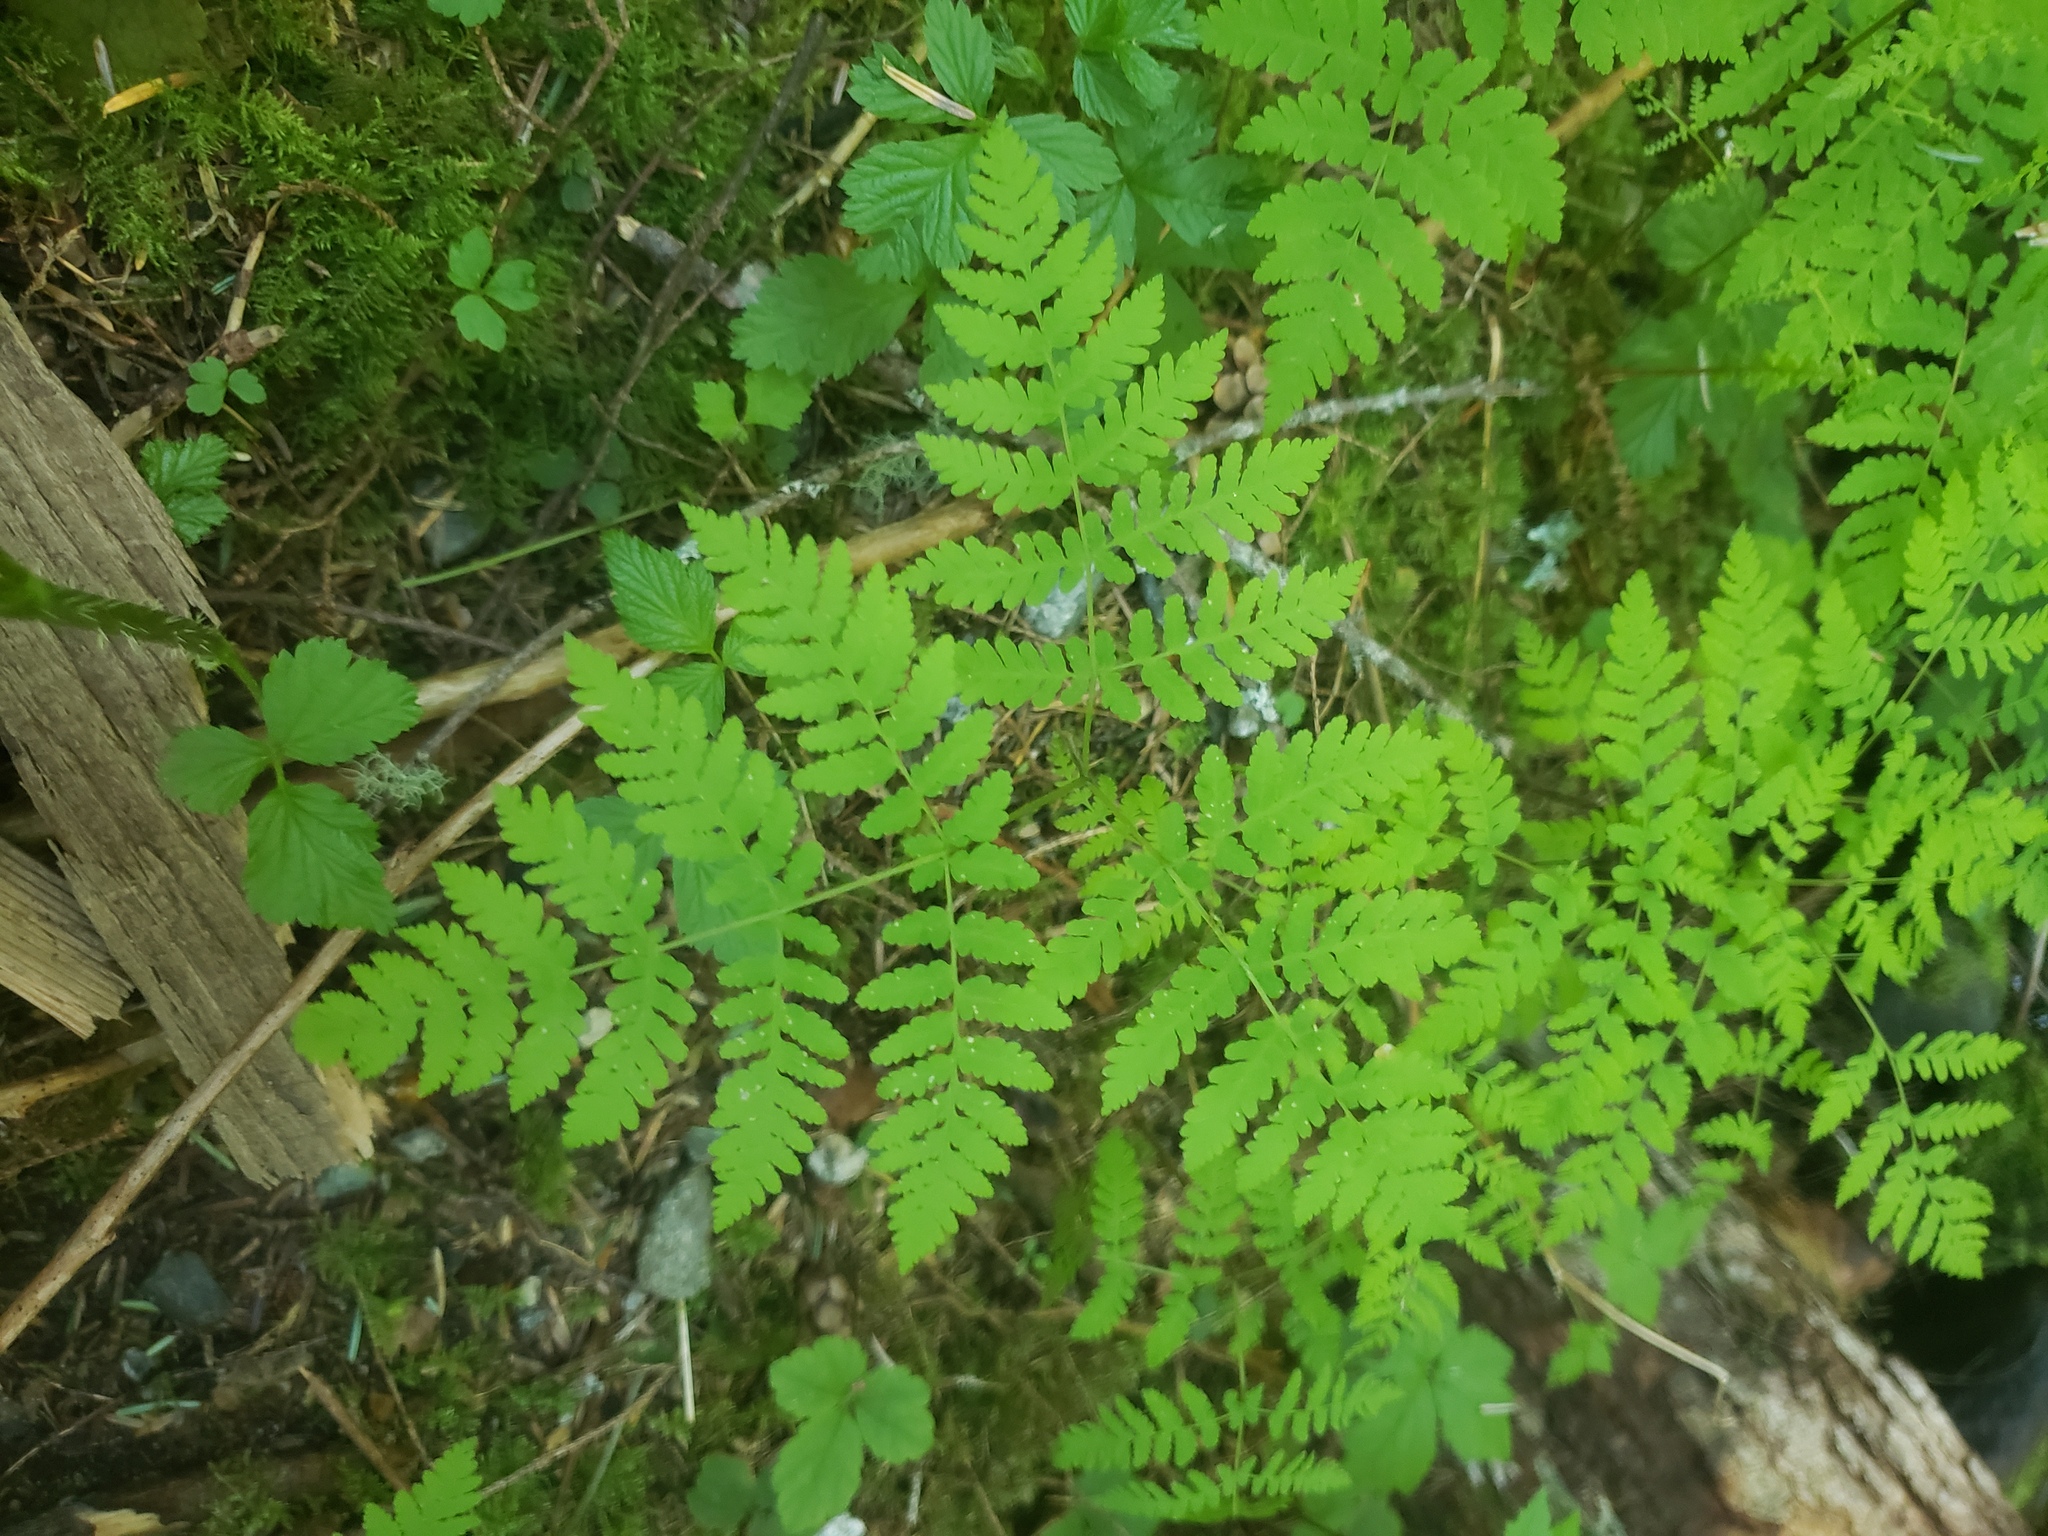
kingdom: Plantae
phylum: Tracheophyta
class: Polypodiopsida
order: Polypodiales
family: Cystopteridaceae
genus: Gymnocarpium
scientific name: Gymnocarpium disjunctum
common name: Western oak fern
